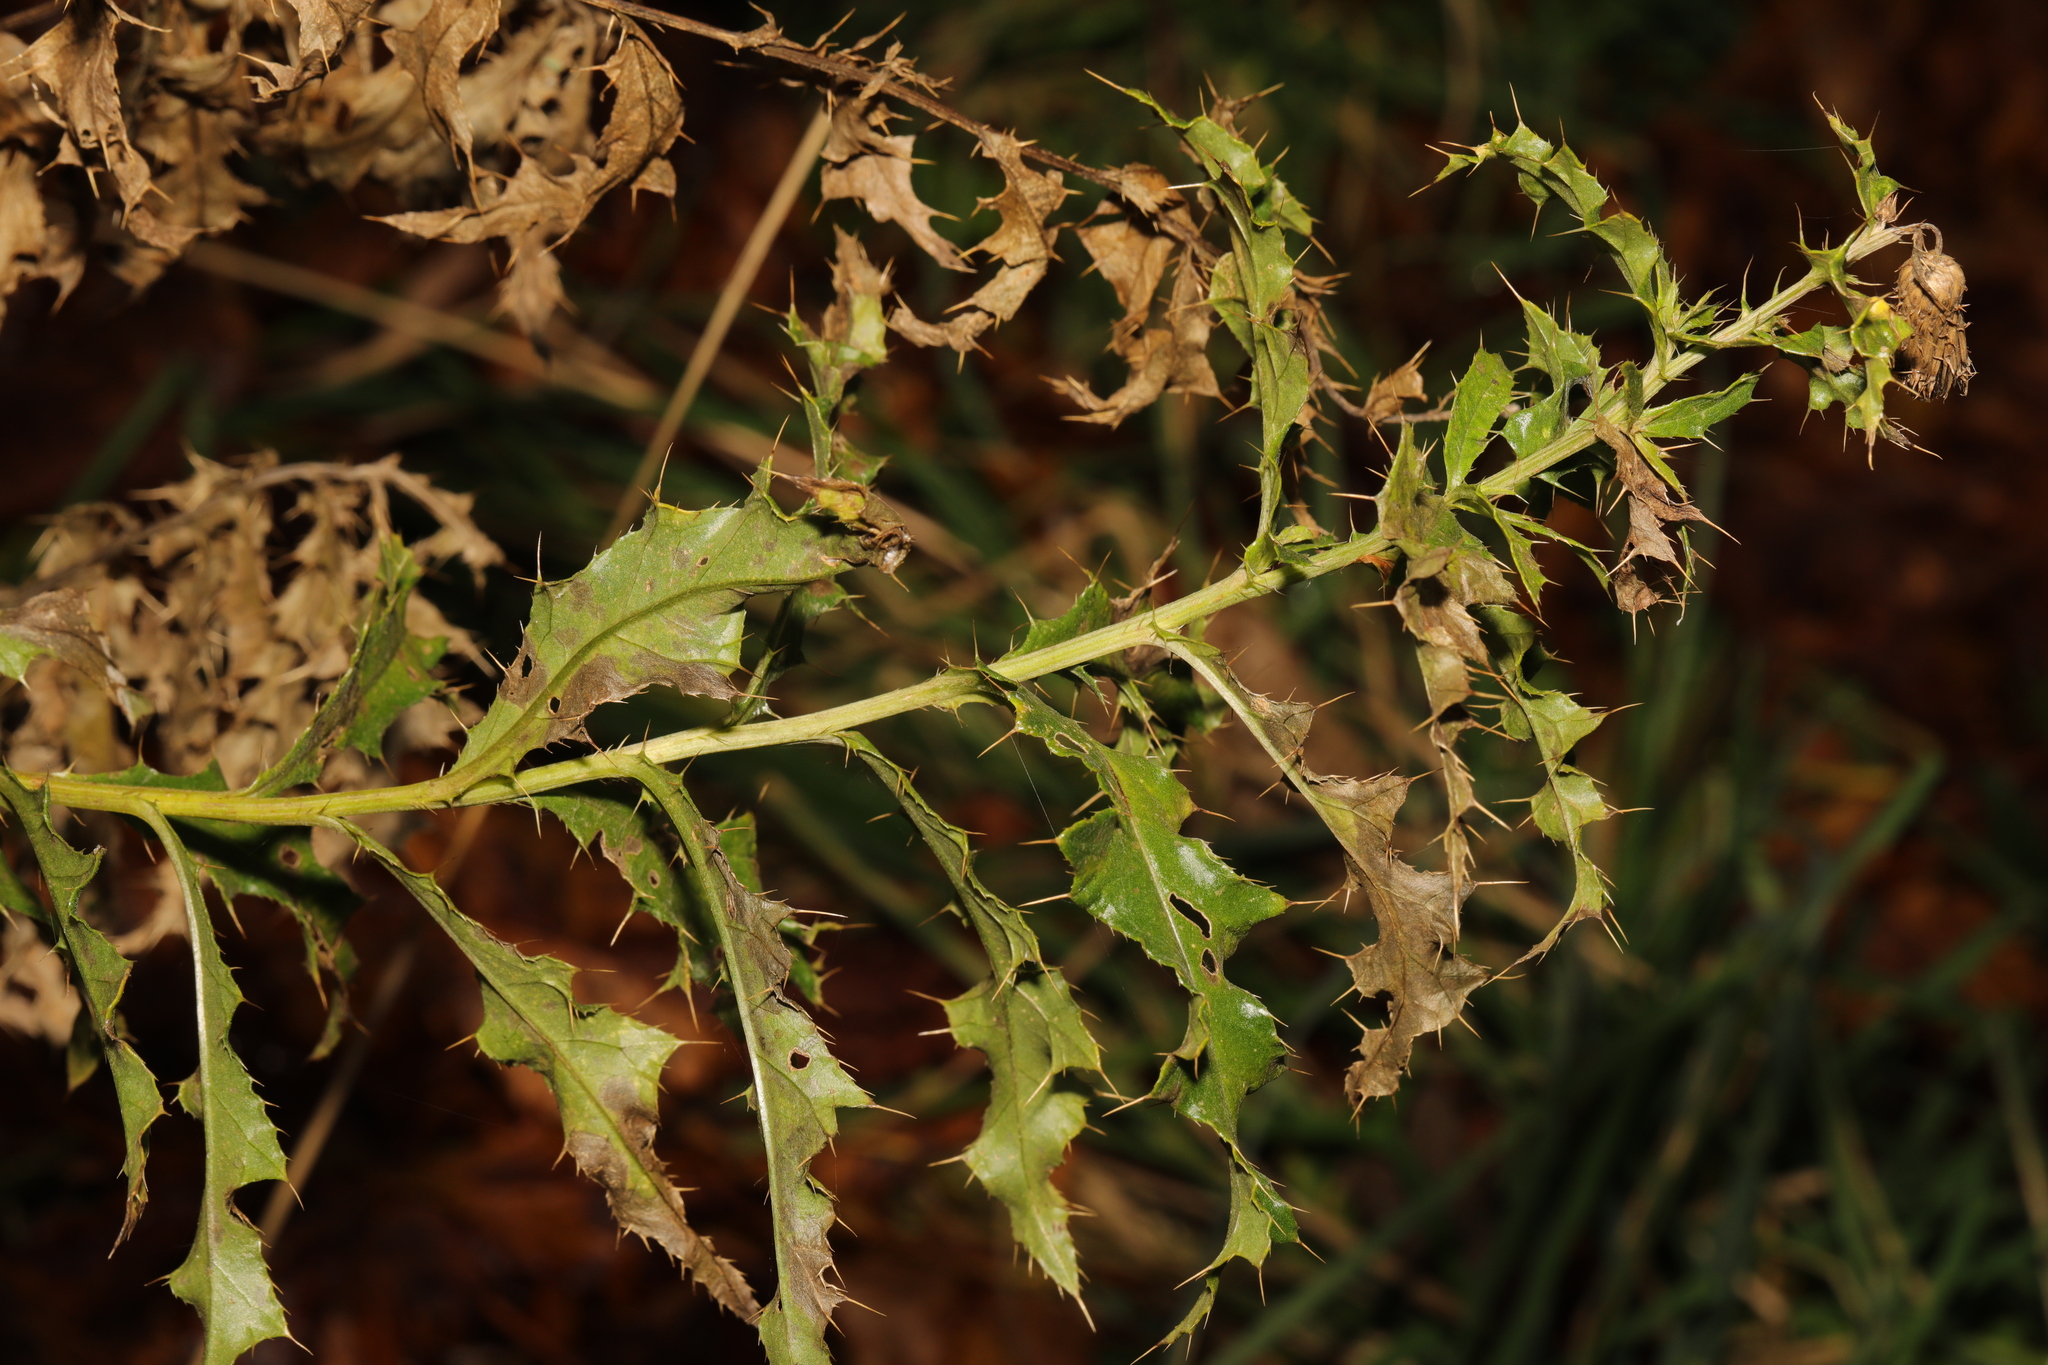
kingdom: Plantae
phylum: Tracheophyta
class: Magnoliopsida
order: Asterales
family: Asteraceae
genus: Cirsium
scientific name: Cirsium arvense
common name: Creeping thistle
